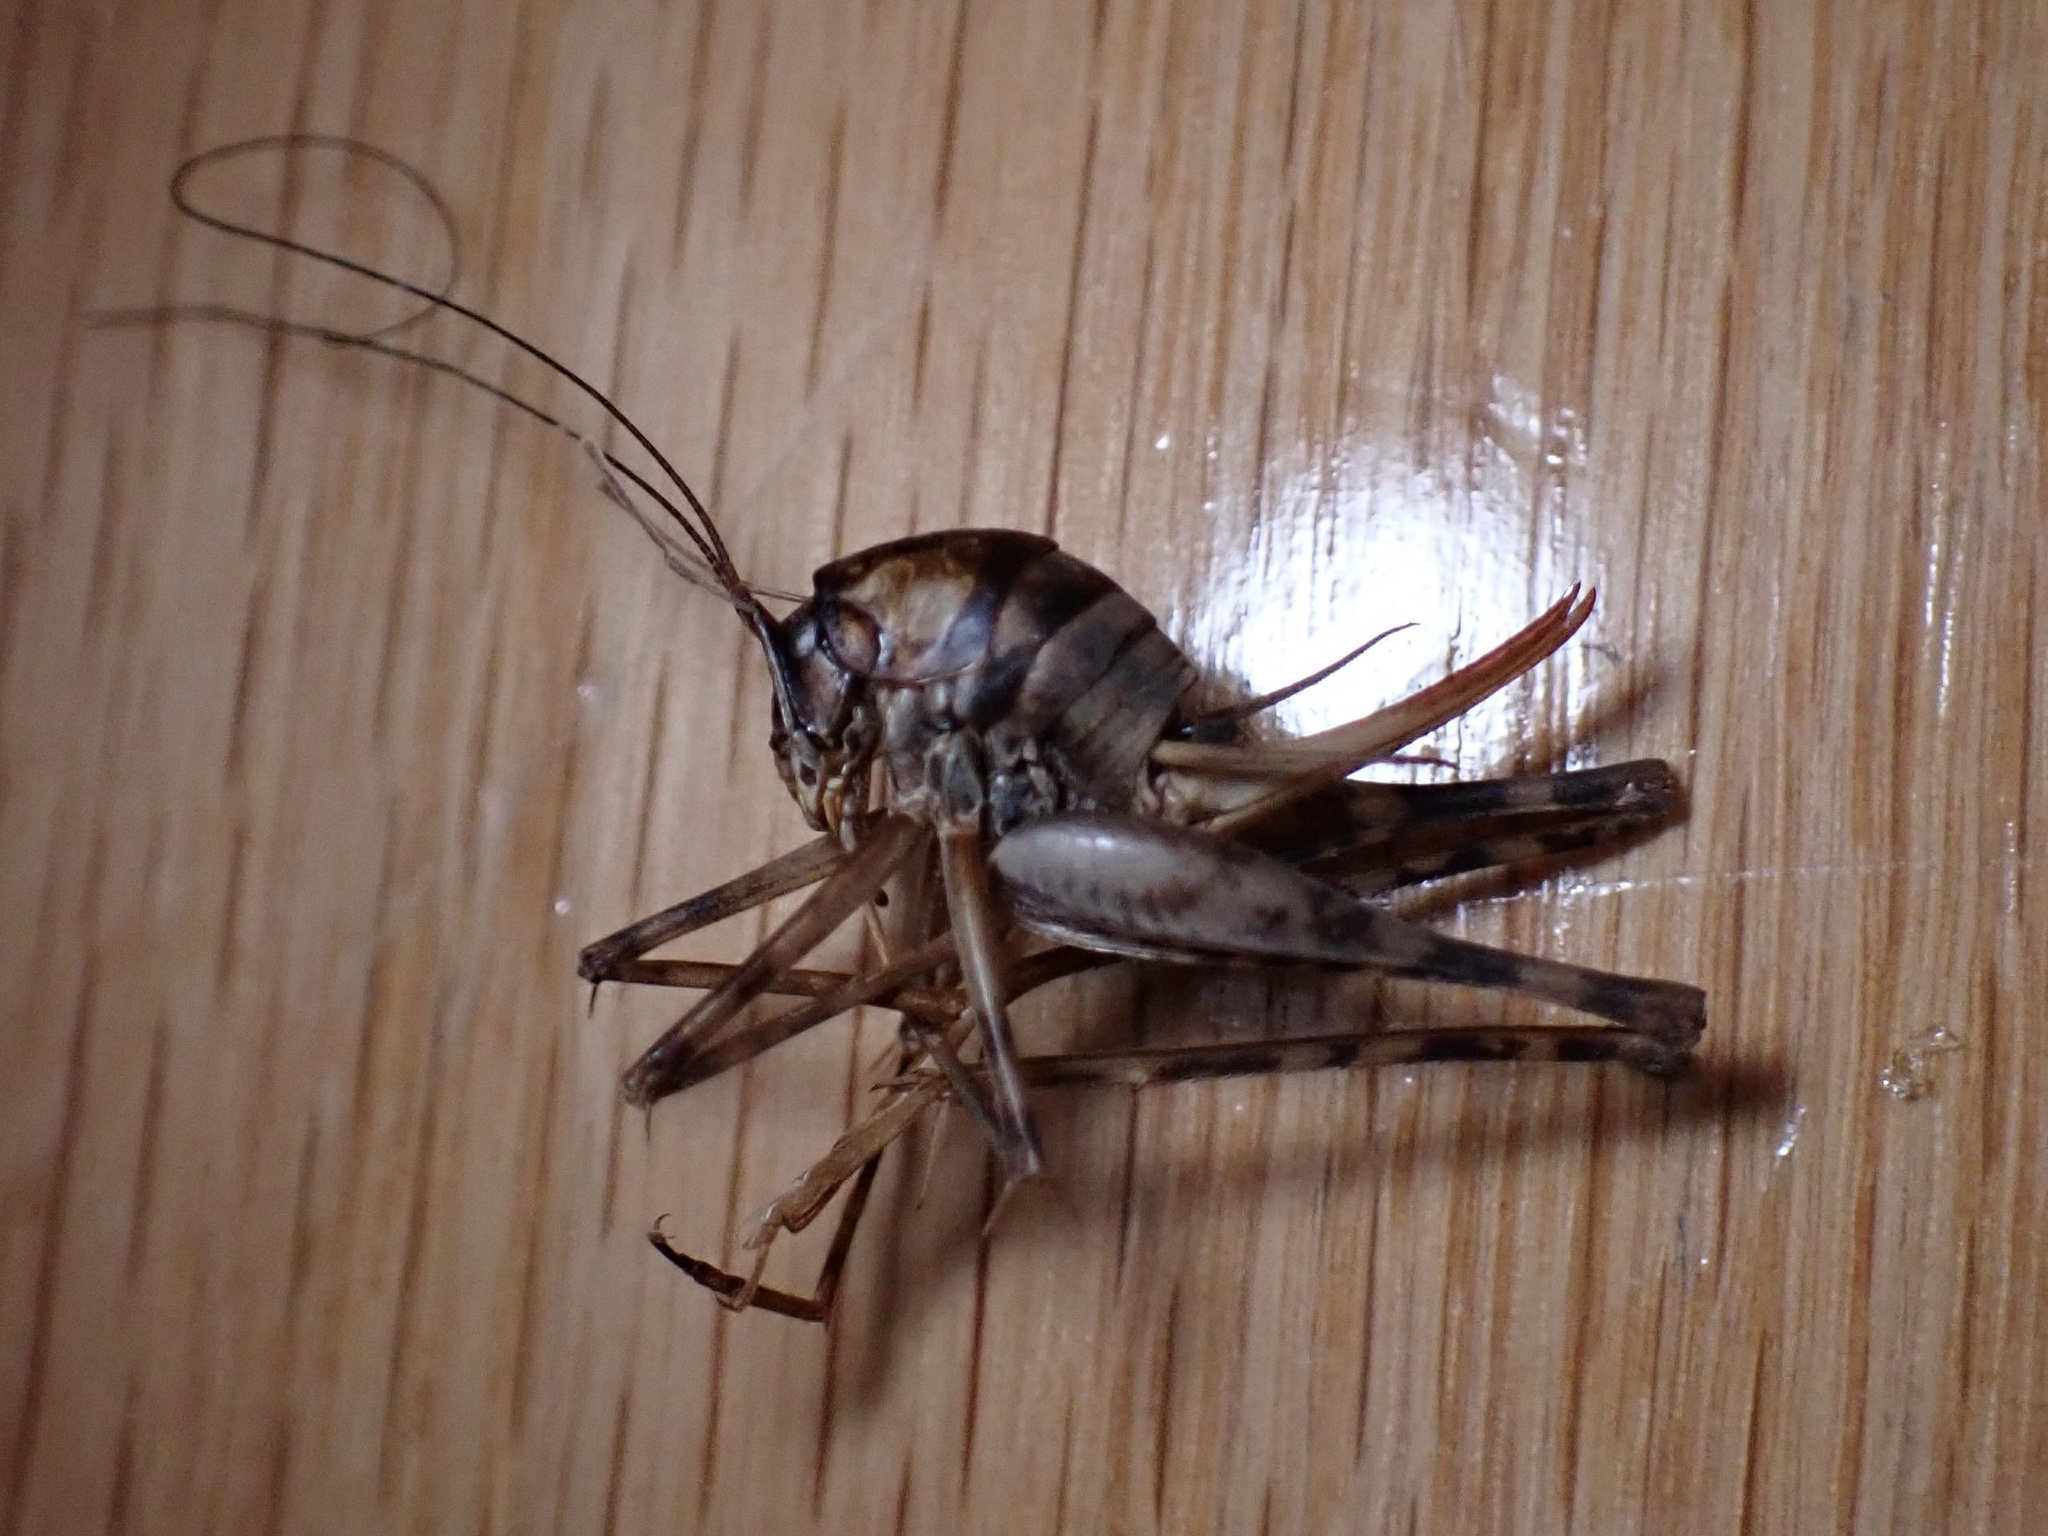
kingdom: Animalia
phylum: Arthropoda
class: Insecta
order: Orthoptera
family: Rhaphidophoridae
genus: Tachycines
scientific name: Tachycines asynamorus
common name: Greenhouse camel cricket
